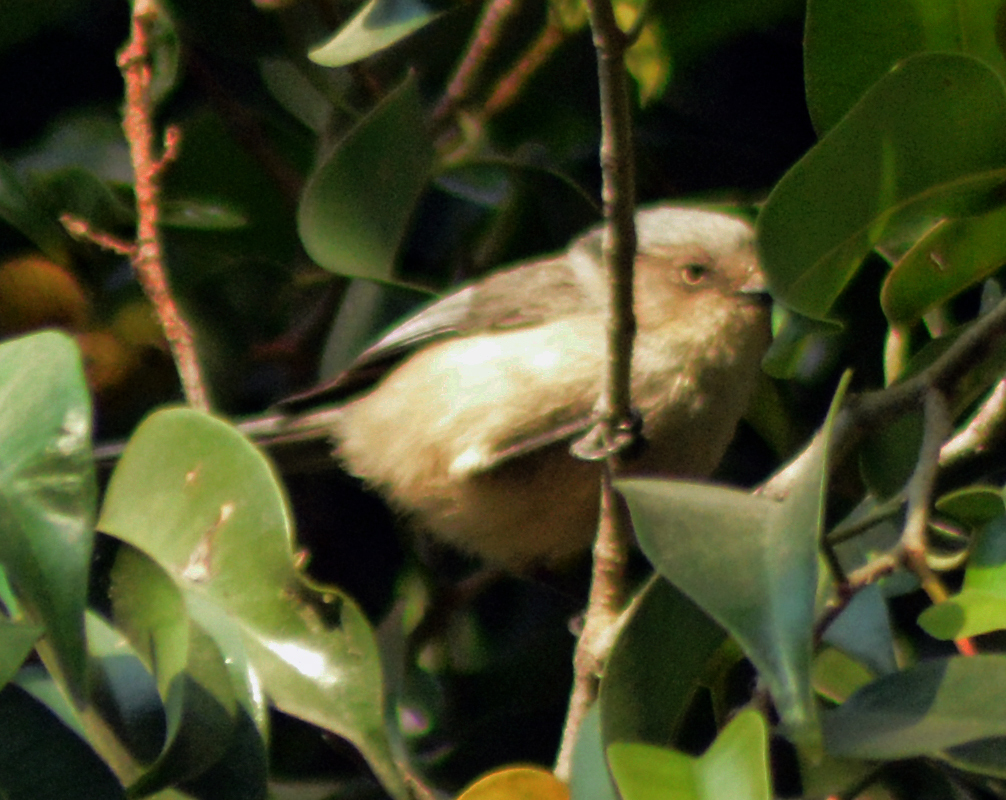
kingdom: Animalia
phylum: Chordata
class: Aves
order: Passeriformes
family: Aegithalidae
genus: Psaltriparus
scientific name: Psaltriparus minimus
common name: American bushtit
